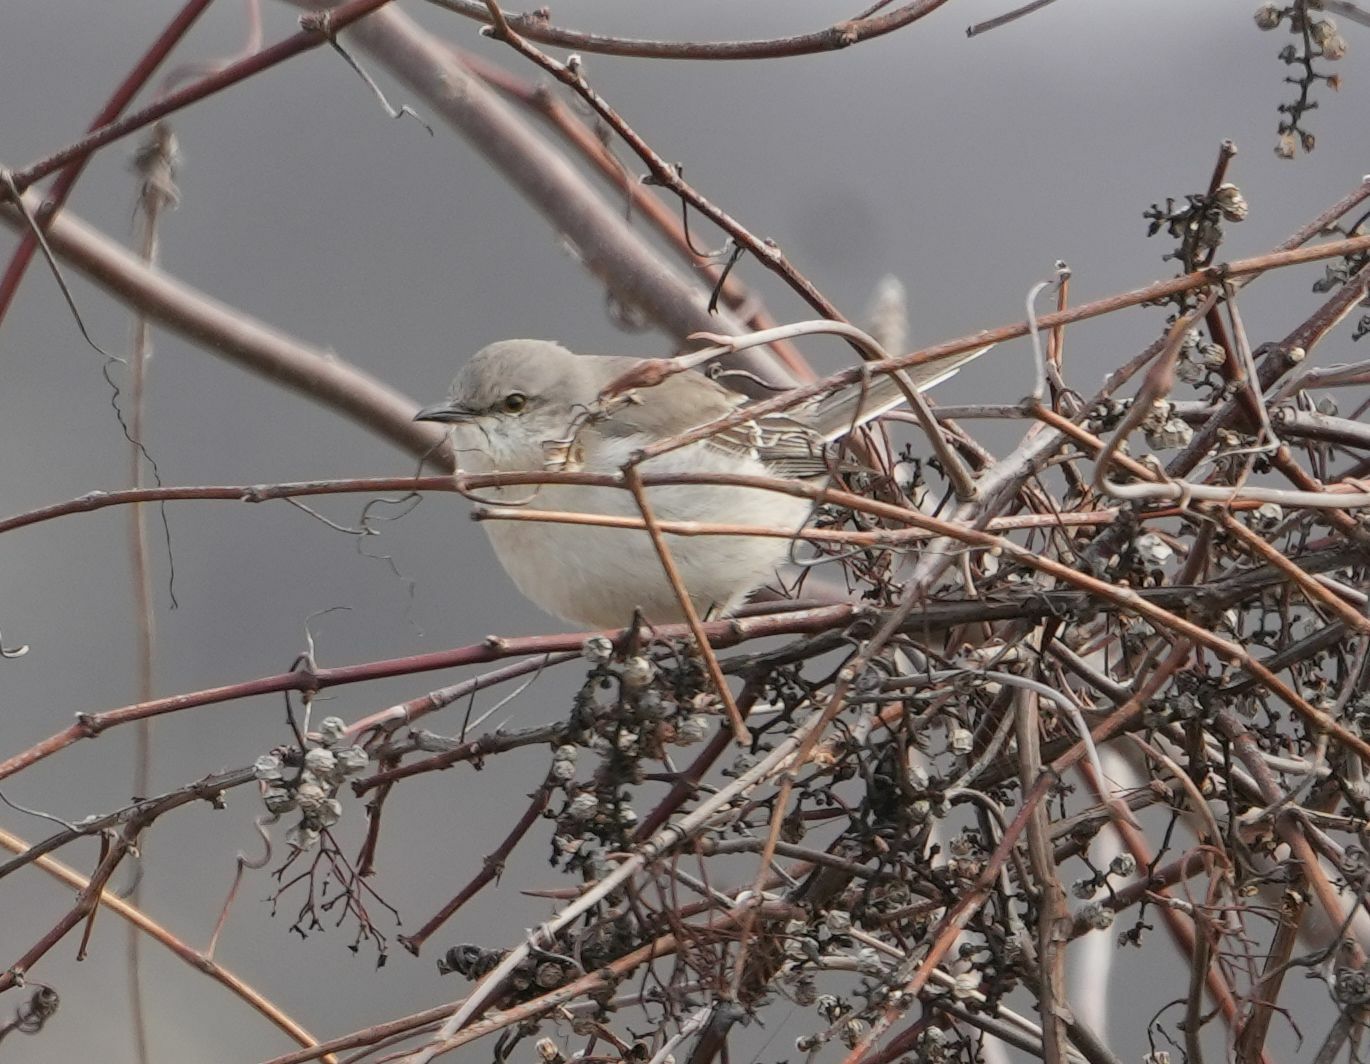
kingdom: Animalia
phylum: Chordata
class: Aves
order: Passeriformes
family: Mimidae
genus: Mimus
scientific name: Mimus polyglottos
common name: Northern mockingbird
